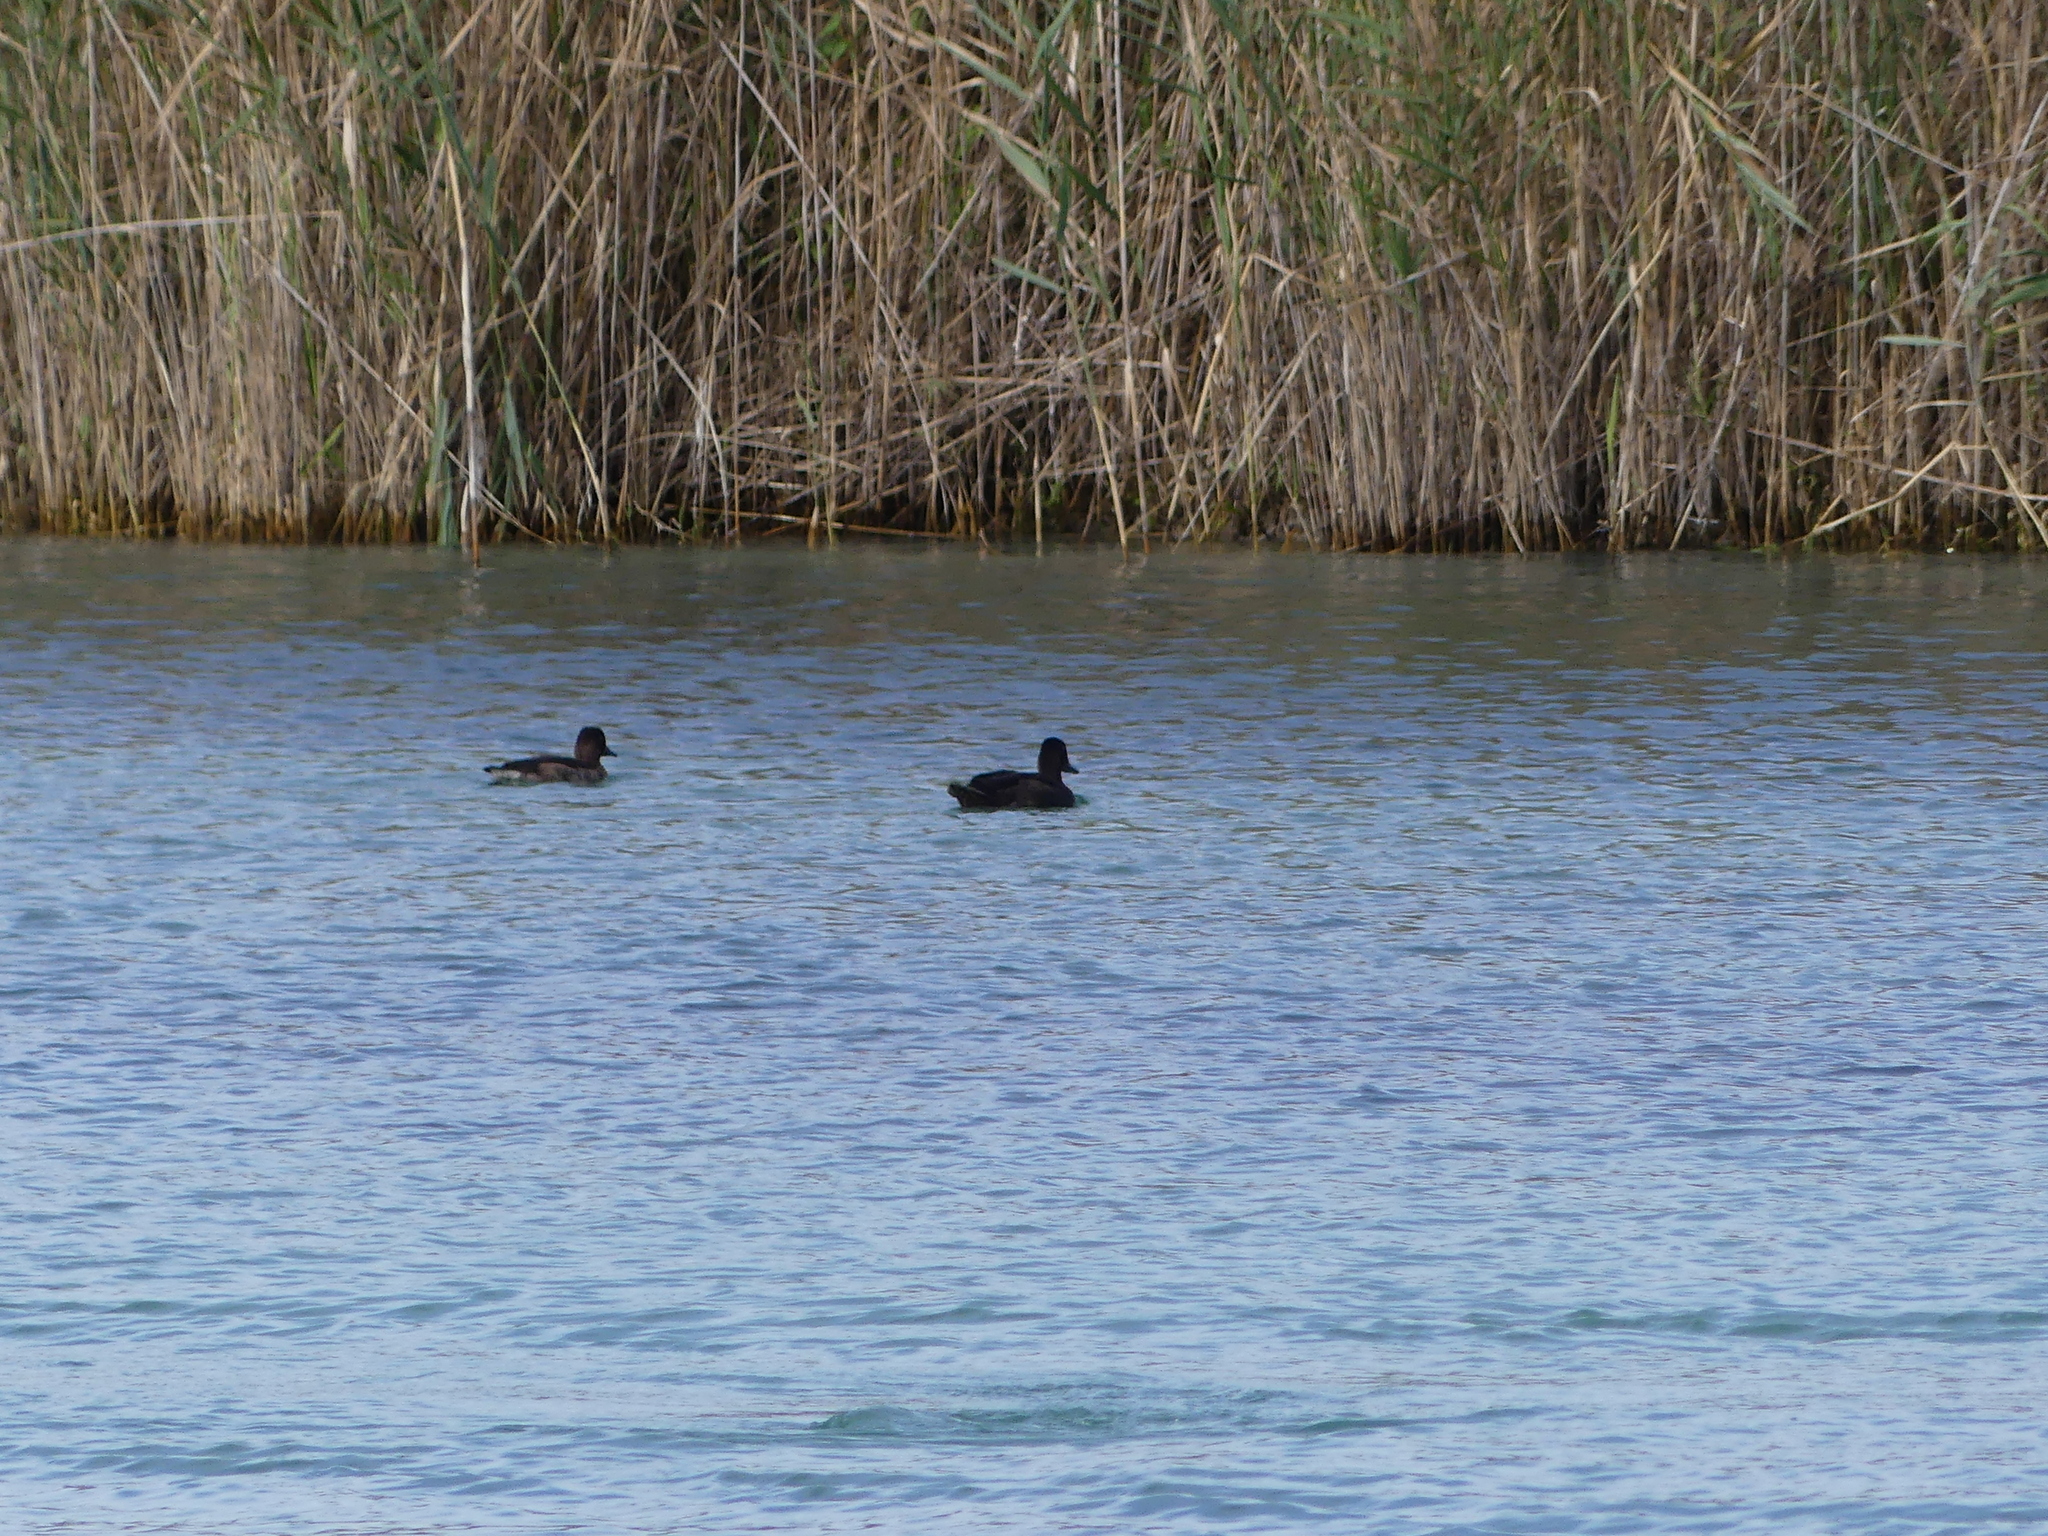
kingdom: Animalia
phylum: Chordata
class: Aves
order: Anseriformes
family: Anatidae
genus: Aythya
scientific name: Aythya nyroca
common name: Ferruginous duck
